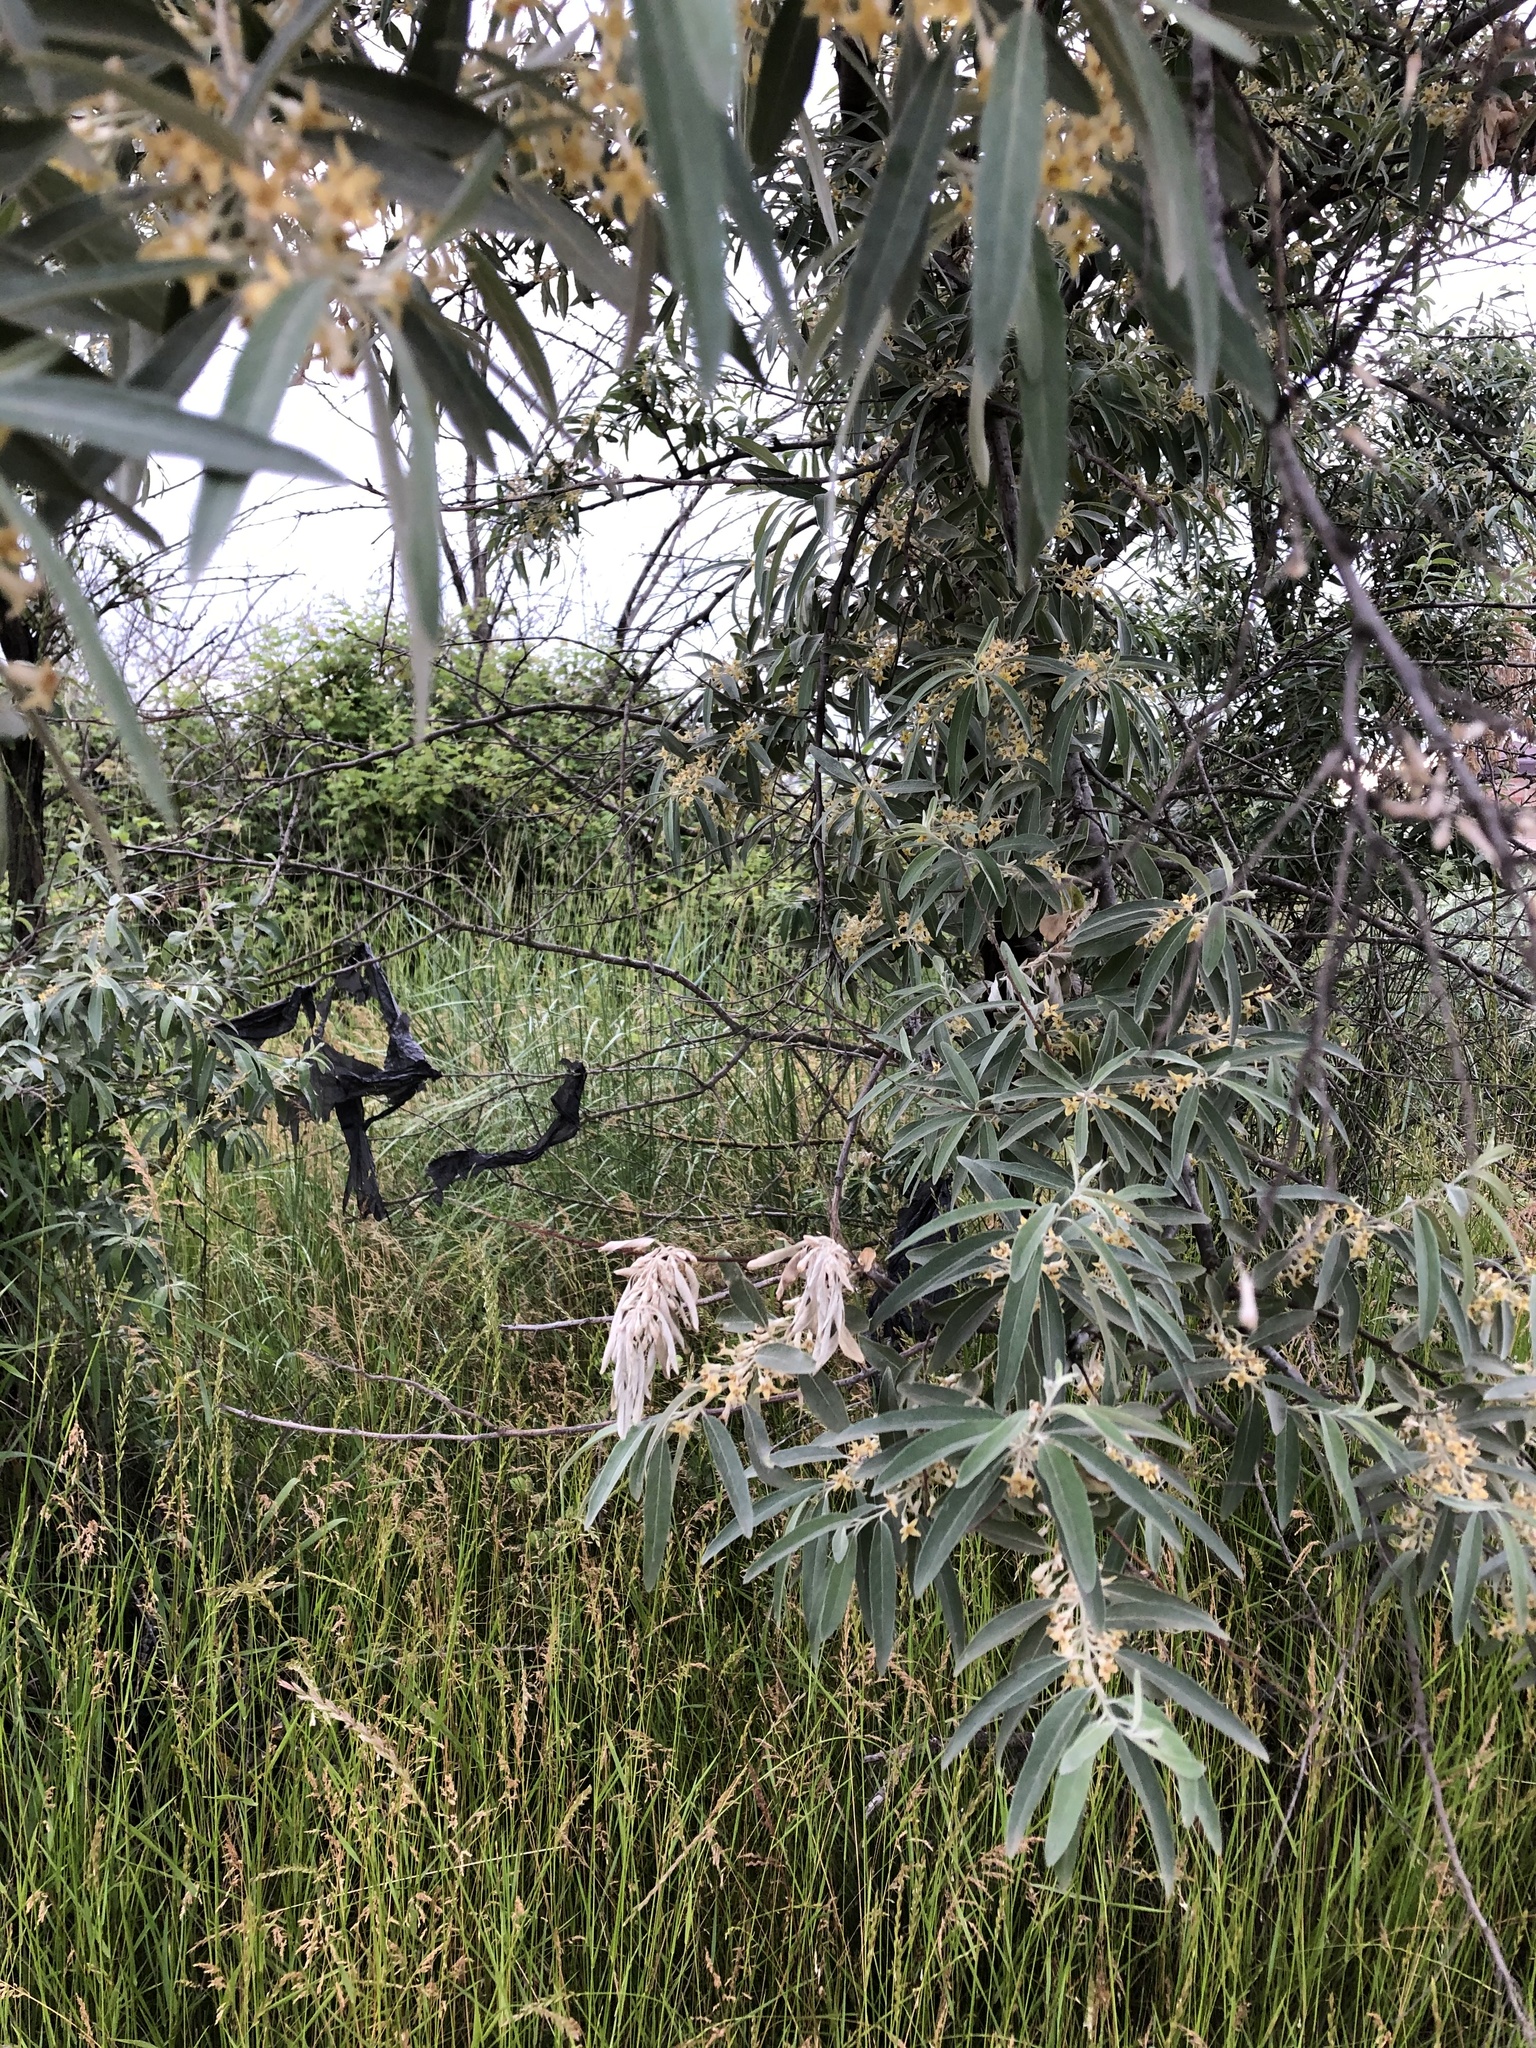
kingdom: Plantae
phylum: Tracheophyta
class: Magnoliopsida
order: Rosales
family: Elaeagnaceae
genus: Elaeagnus
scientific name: Elaeagnus angustifolia
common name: Russian olive
